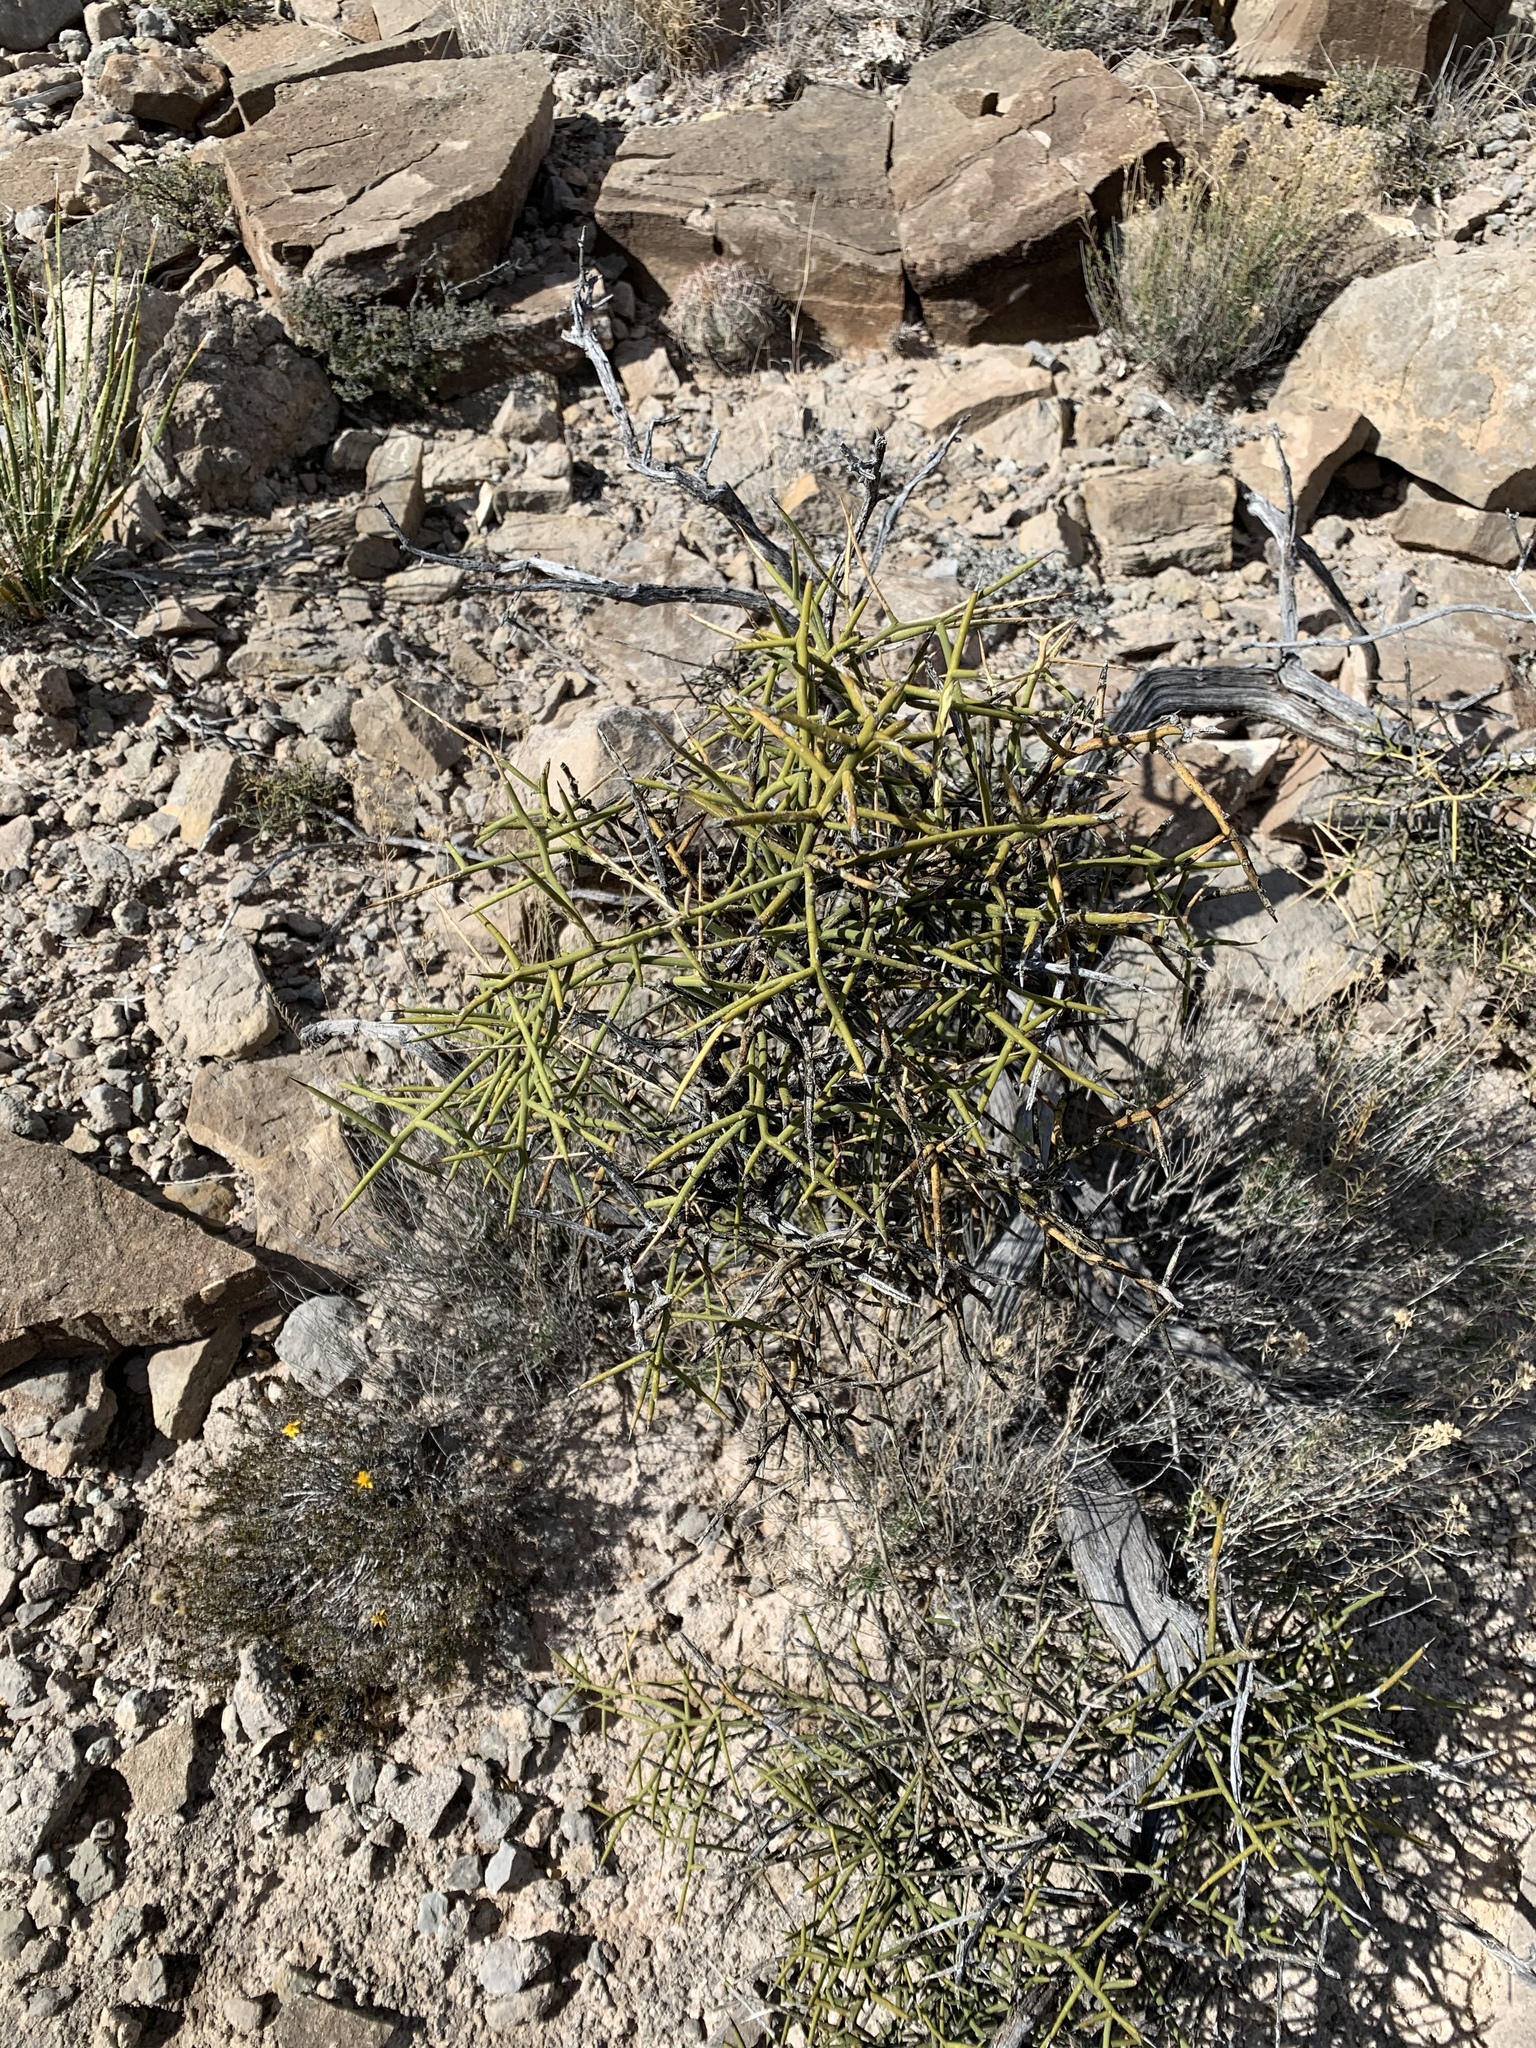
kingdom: Plantae
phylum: Tracheophyta
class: Magnoliopsida
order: Brassicales
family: Koeberliniaceae
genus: Koeberlinia
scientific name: Koeberlinia spinosa
